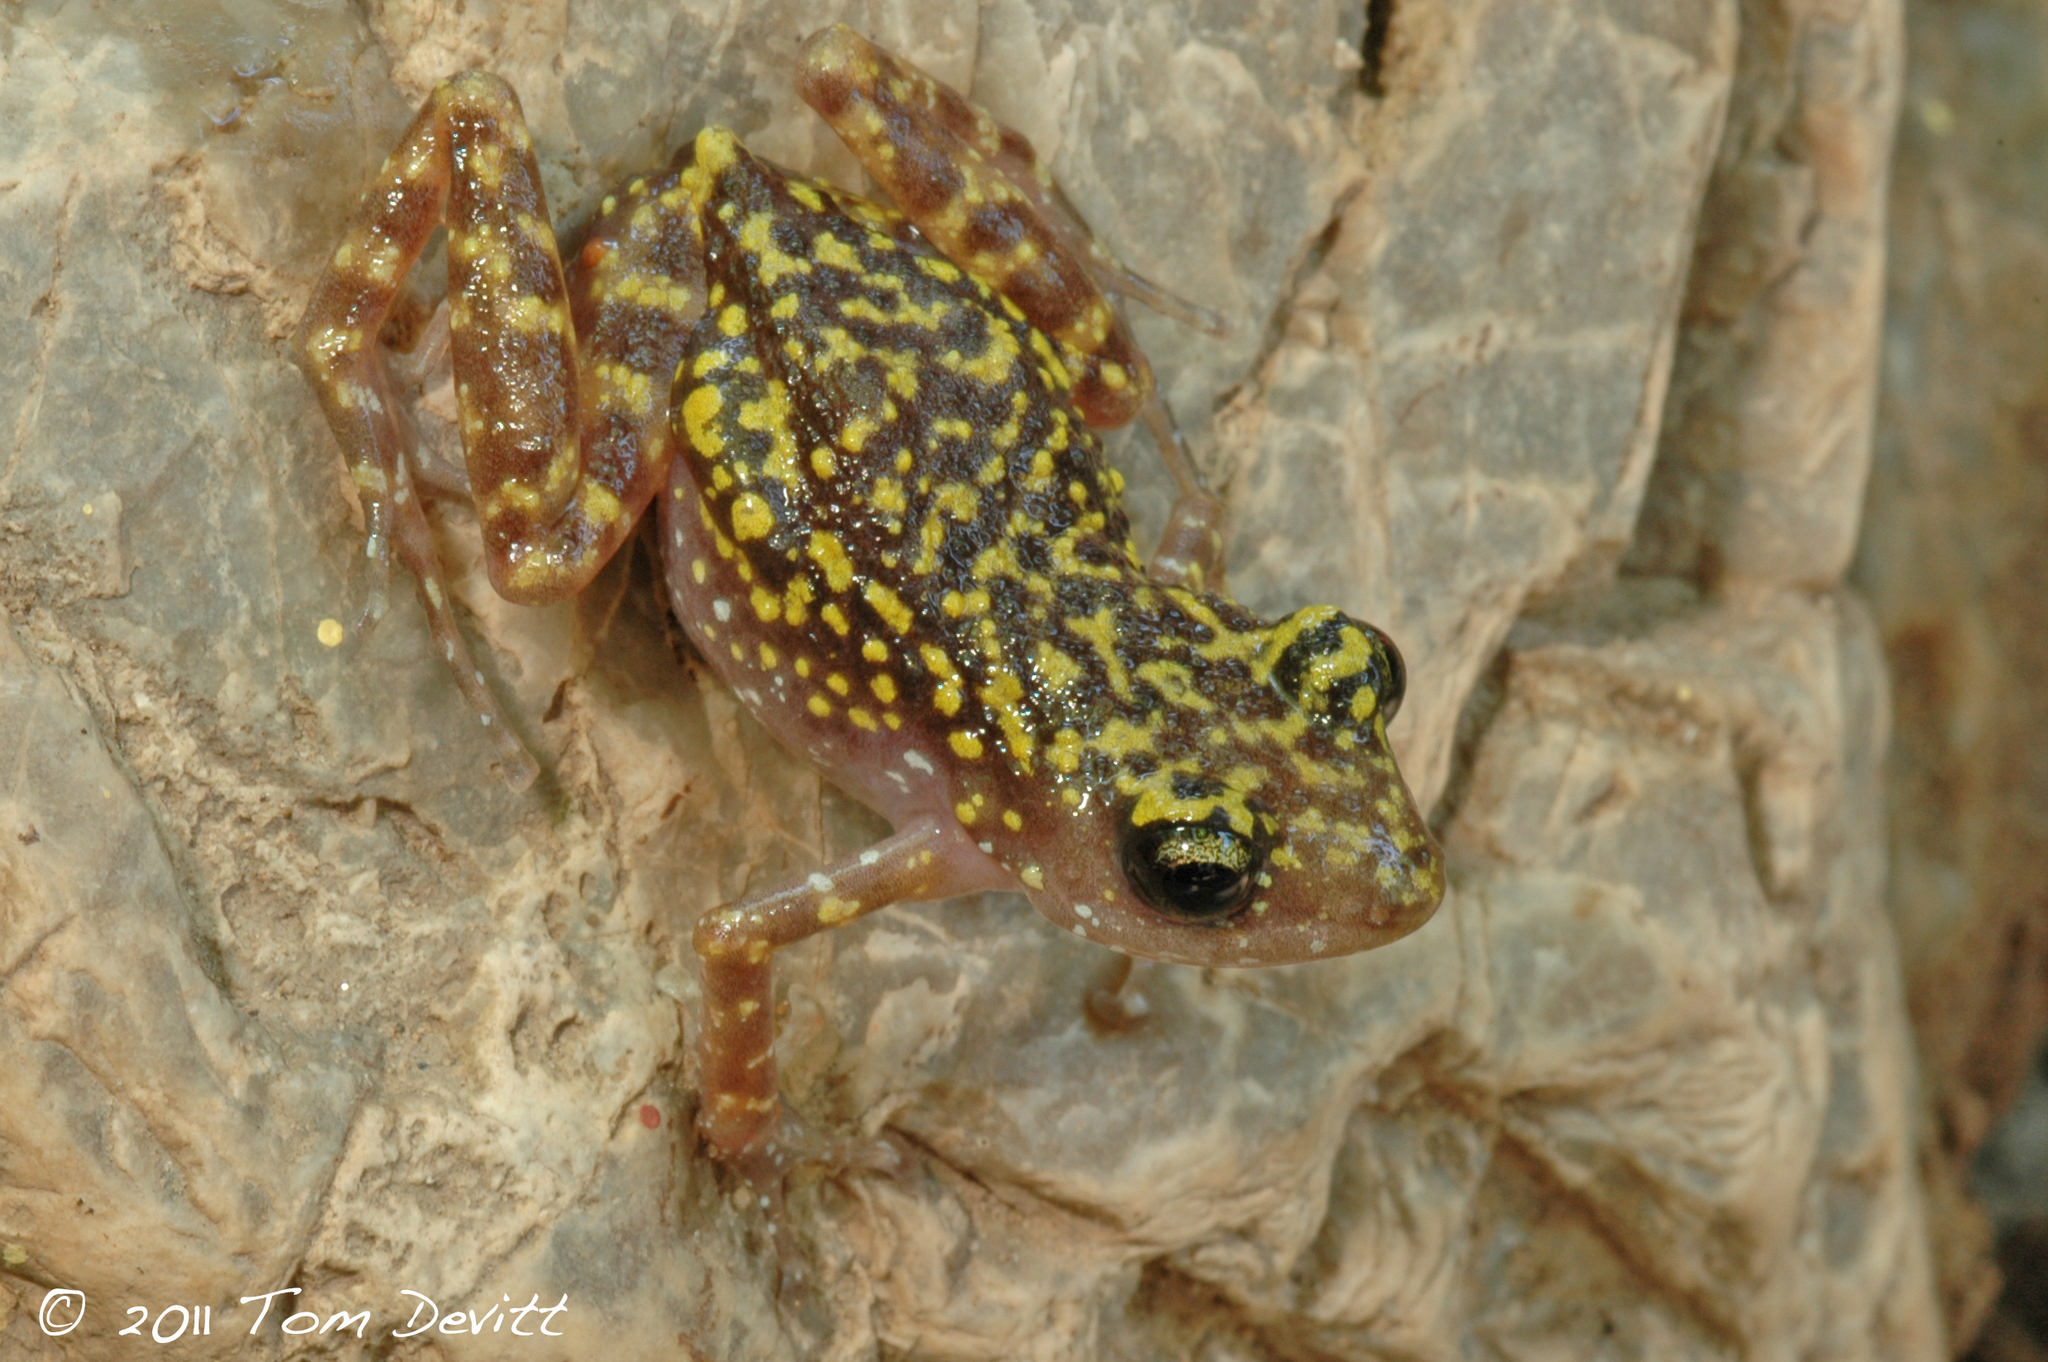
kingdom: Animalia
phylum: Chordata
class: Amphibia
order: Anura
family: Eleutherodactylidae
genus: Eleutherodactylus
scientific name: Eleutherodactylus saxatilis
